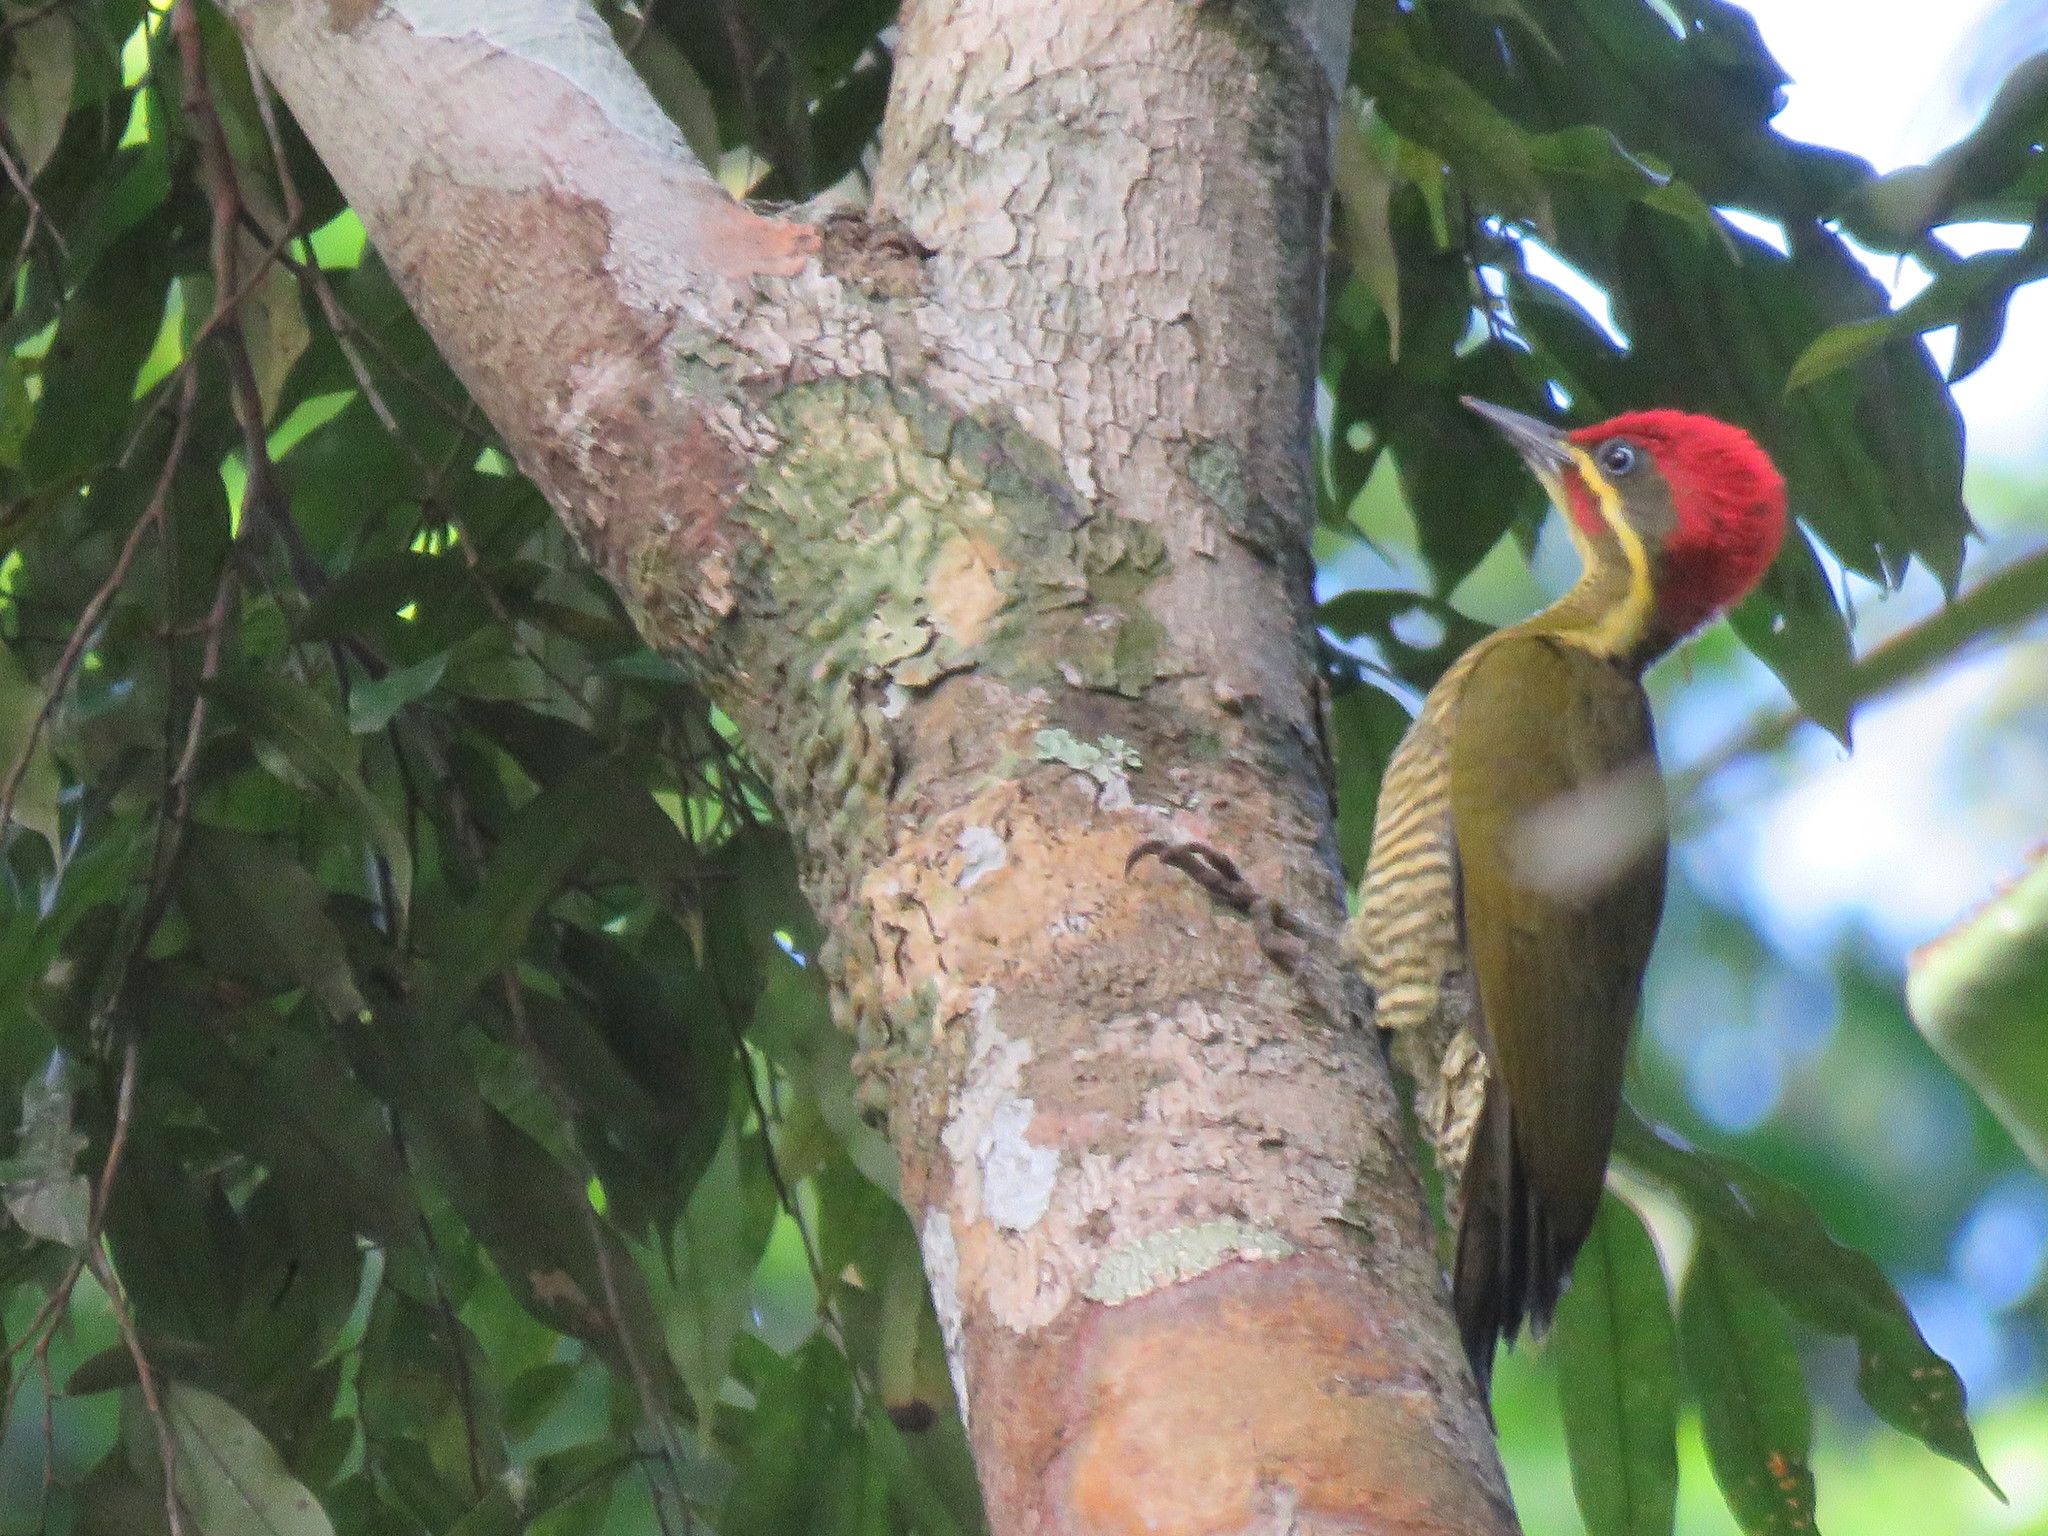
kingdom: Animalia
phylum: Chordata
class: Aves
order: Piciformes
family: Picidae
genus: Piculus
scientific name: Piculus chrysochloros
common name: Golden-green woodpecker
